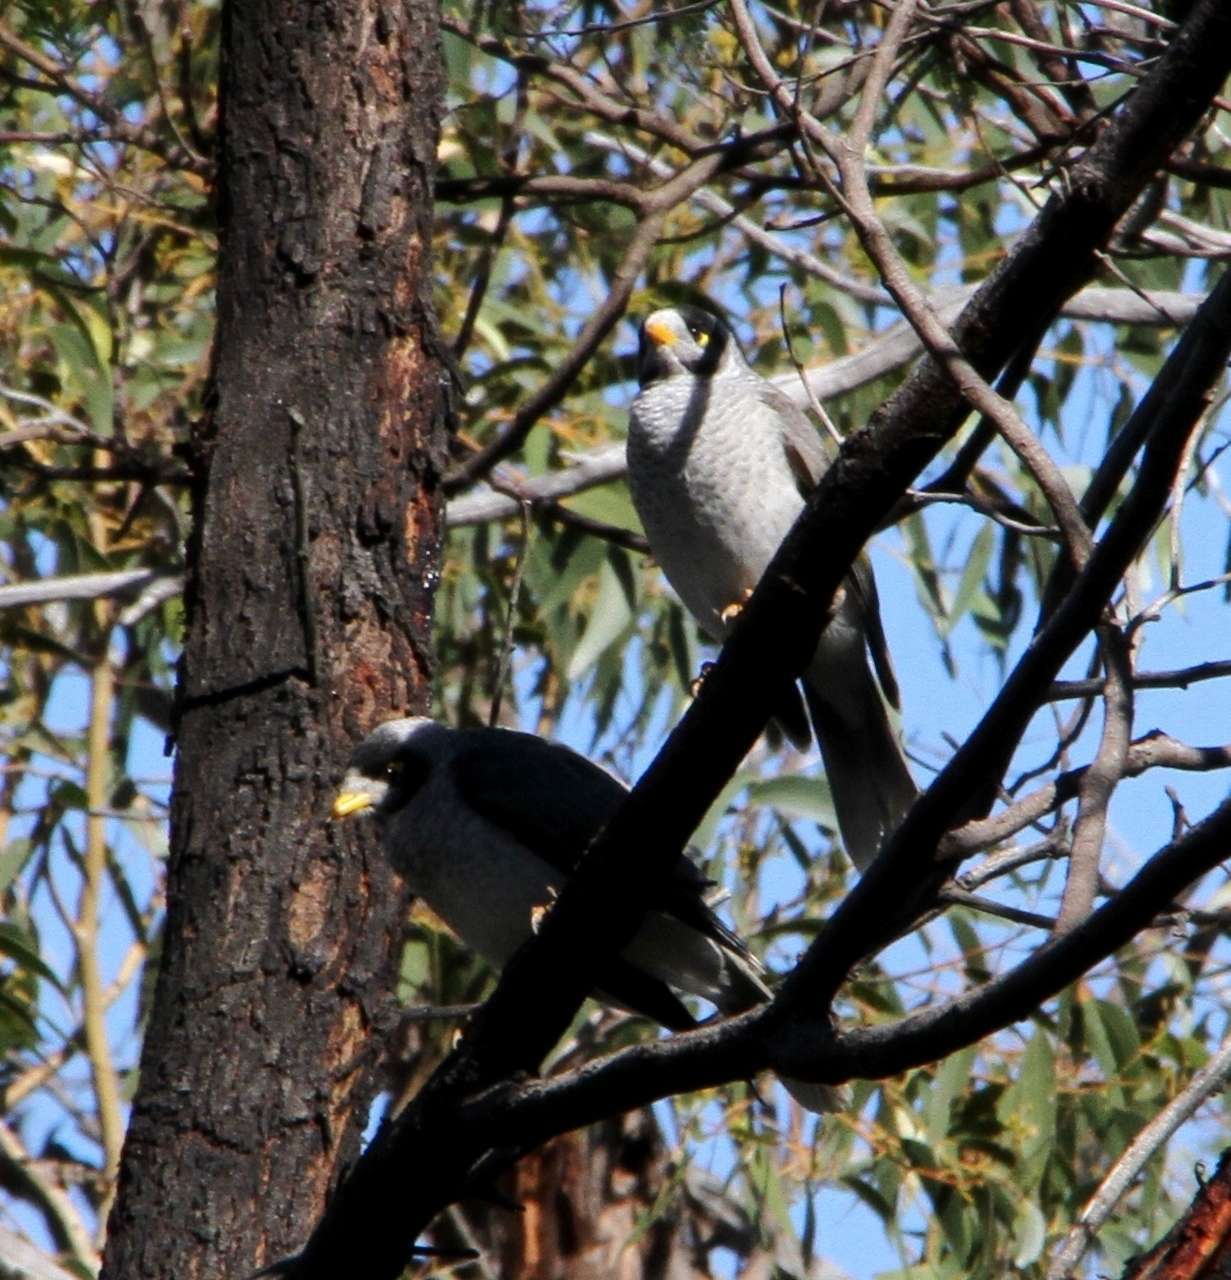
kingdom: Animalia
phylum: Chordata
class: Aves
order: Passeriformes
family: Meliphagidae
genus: Manorina
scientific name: Manorina melanocephala
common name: Noisy miner
